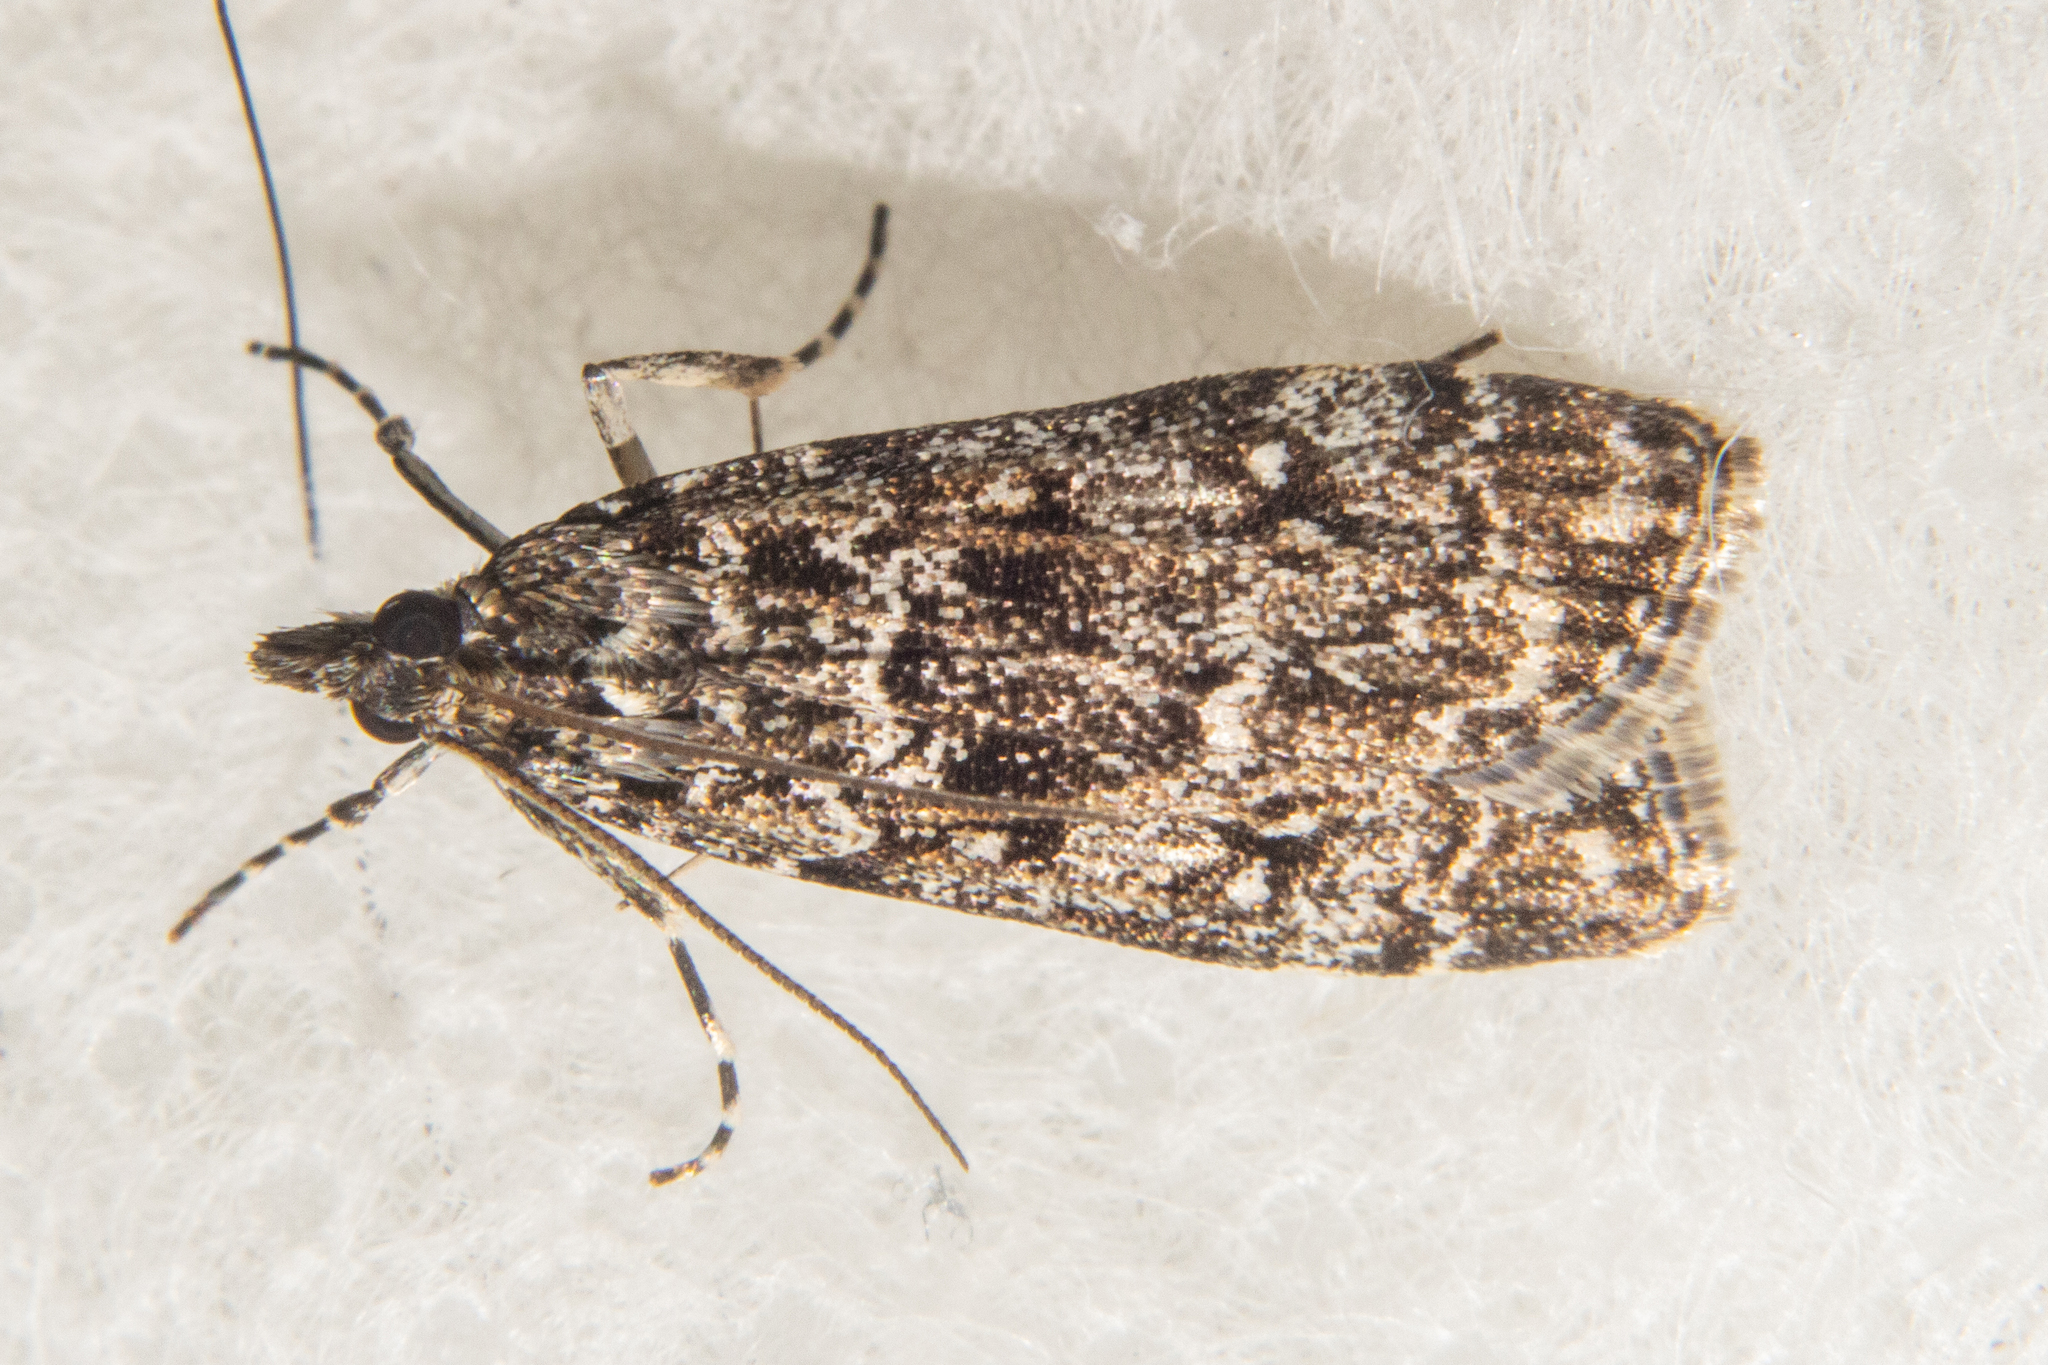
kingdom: Animalia
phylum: Arthropoda
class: Insecta
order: Lepidoptera
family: Crambidae
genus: Eudonia
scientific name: Eudonia
